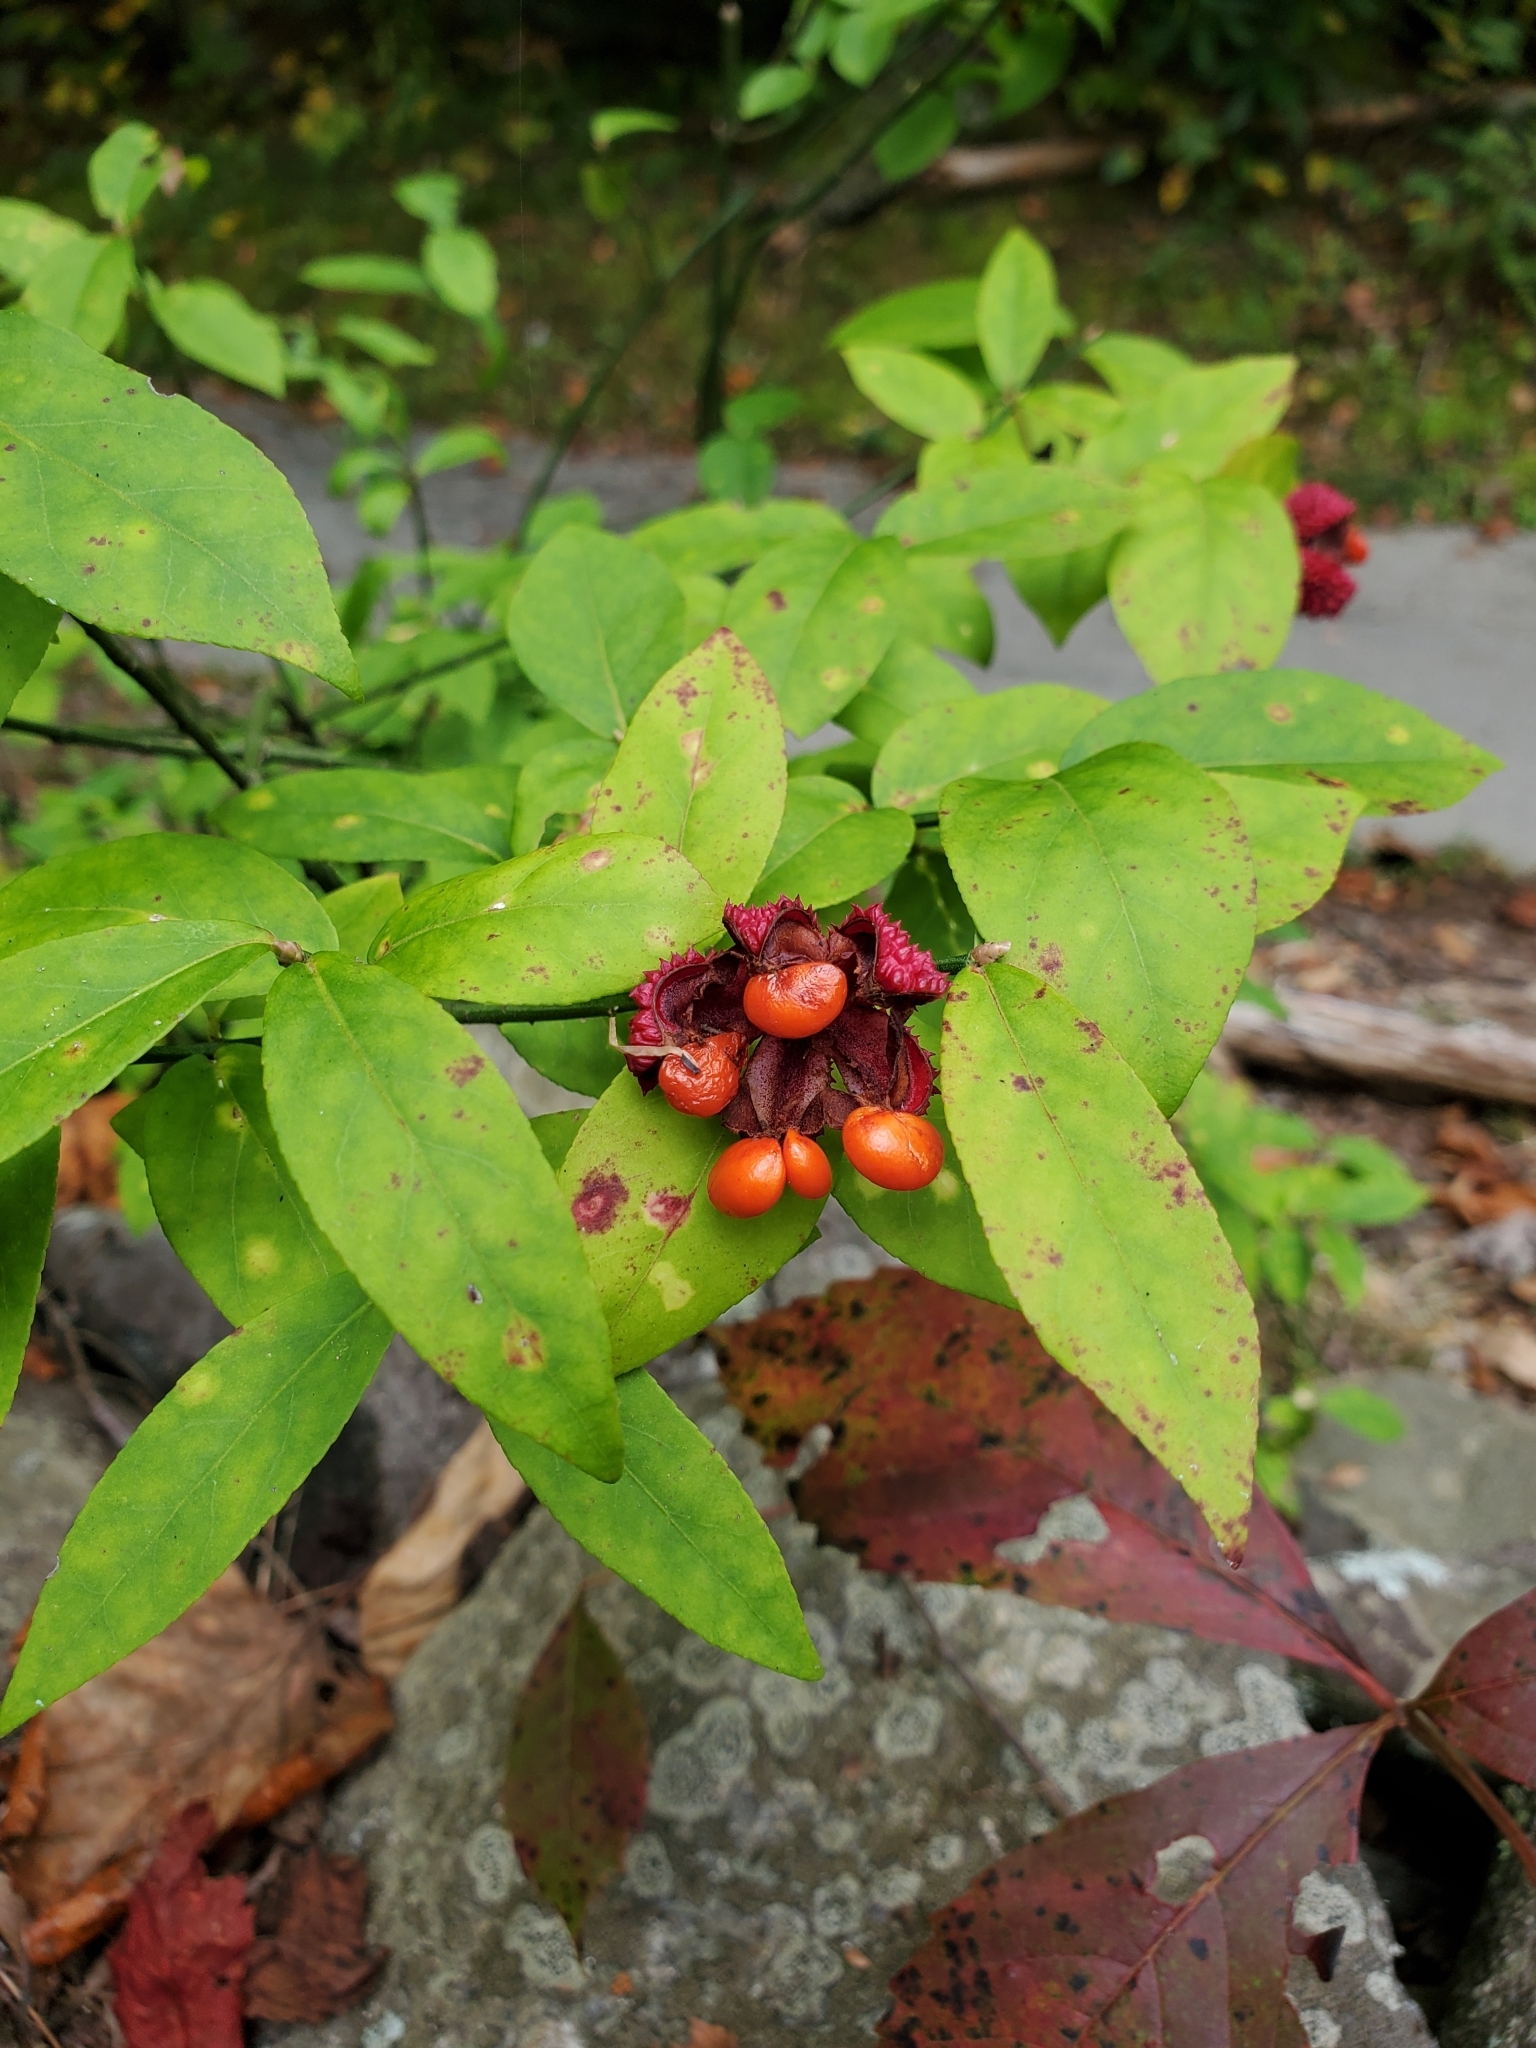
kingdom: Plantae
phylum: Tracheophyta
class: Magnoliopsida
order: Celastrales
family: Celastraceae
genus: Euonymus
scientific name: Euonymus americanus
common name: Bursting-heart
